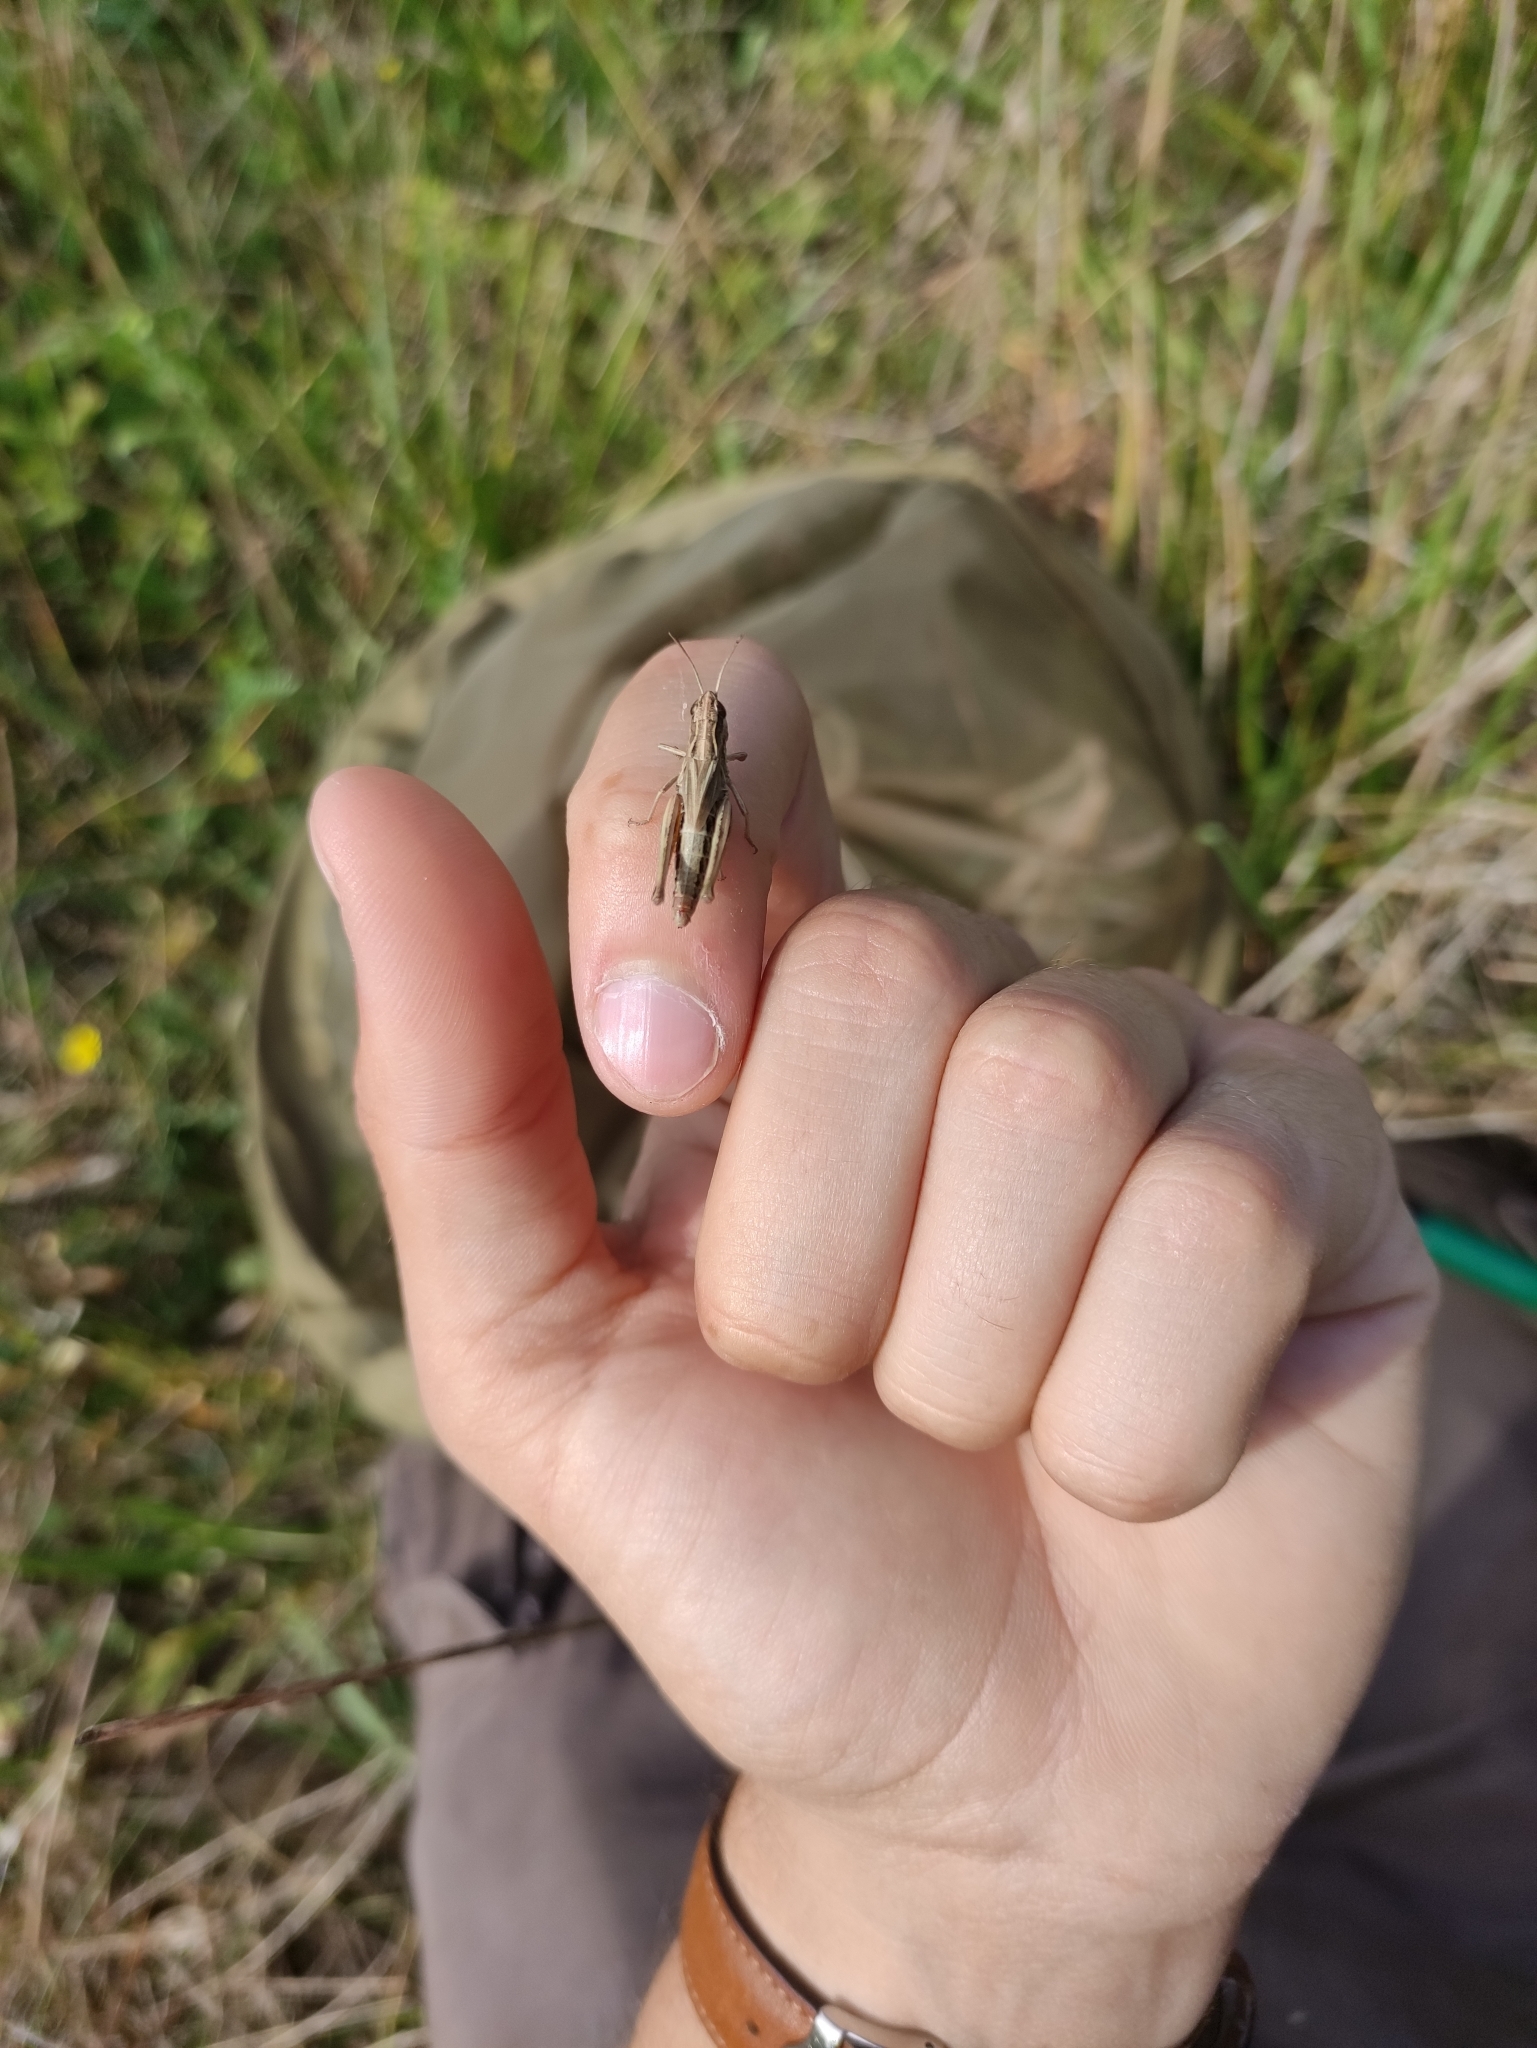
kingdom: Animalia
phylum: Arthropoda
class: Insecta
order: Orthoptera
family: Acrididae
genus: Pseudochorthippus
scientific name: Pseudochorthippus parallelus
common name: Meadow grasshopper
